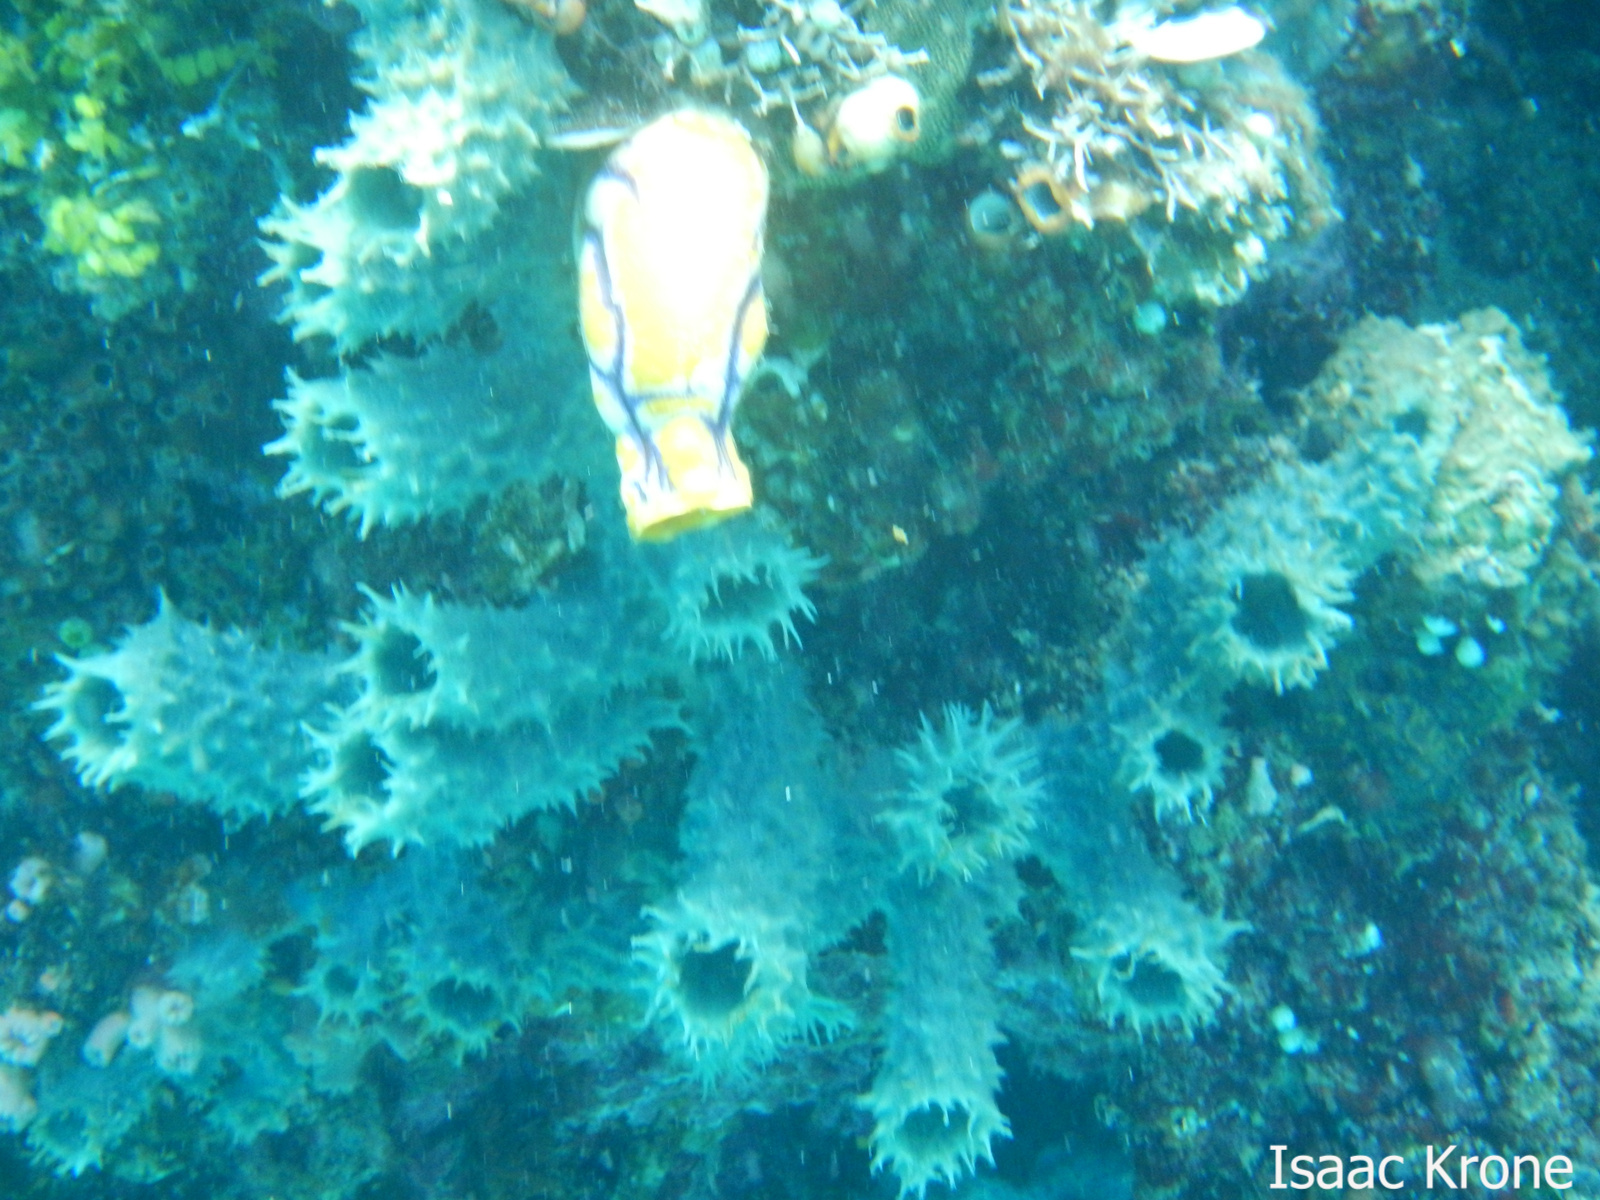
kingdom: Animalia
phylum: Porifera
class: Demospongiae
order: Haplosclerida
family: Callyspongiidae
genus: Callyspongia
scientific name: Callyspongia aerizusa
